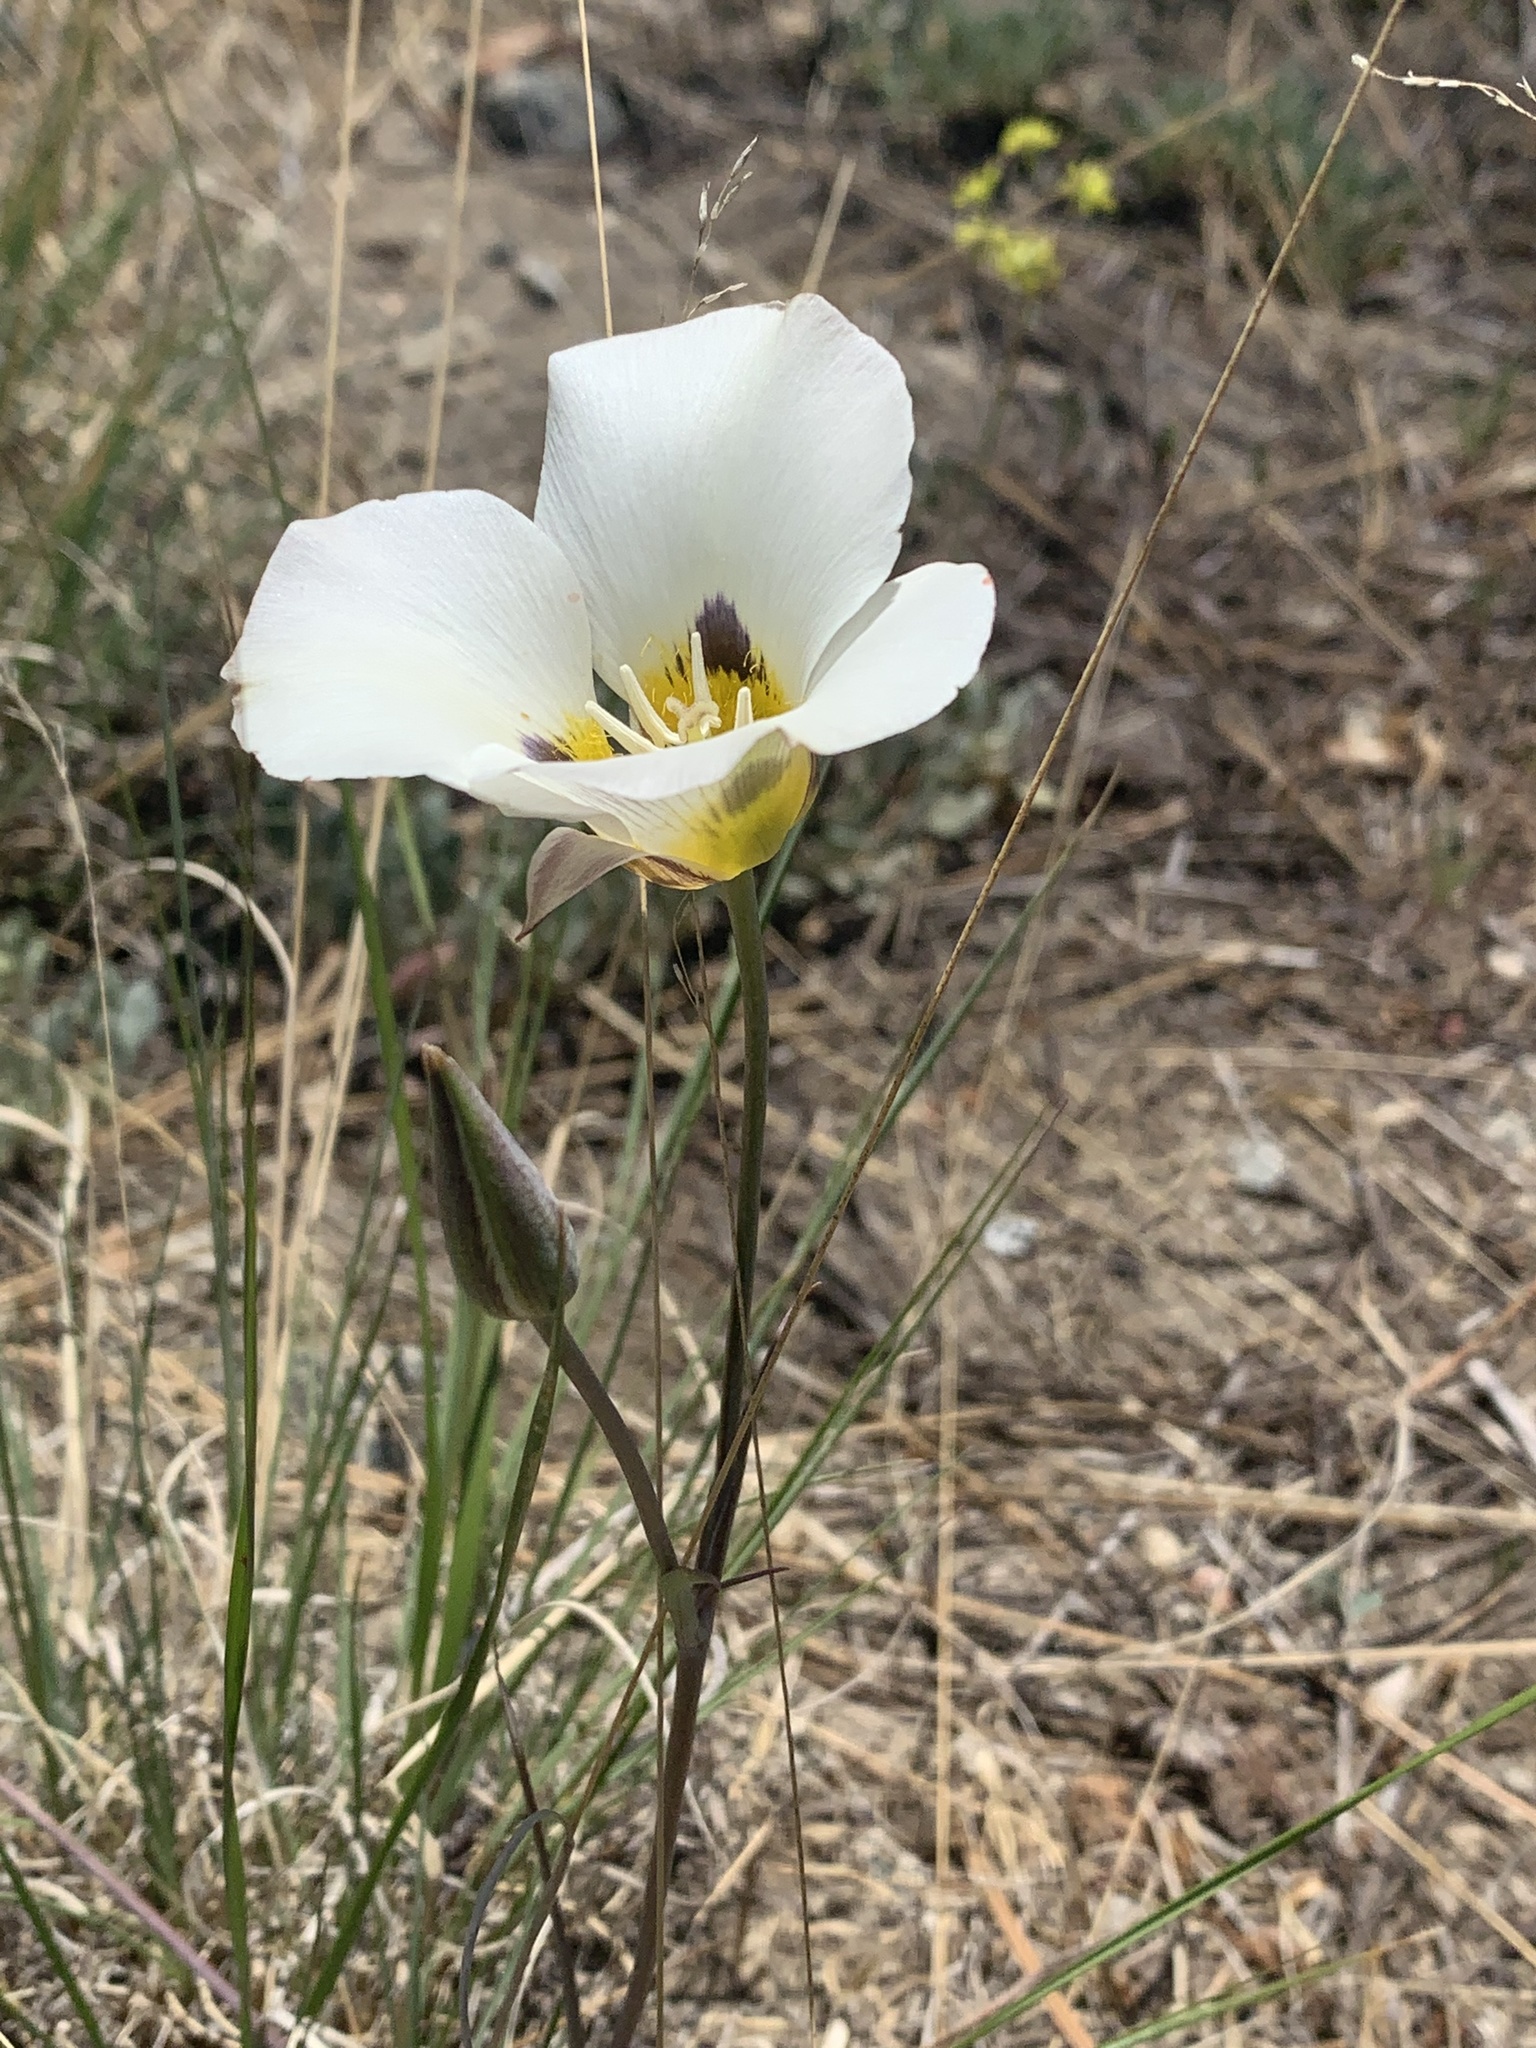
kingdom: Plantae
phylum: Tracheophyta
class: Liliopsida
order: Liliales
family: Liliaceae
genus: Calochortus
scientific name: Calochortus leichtlinii
